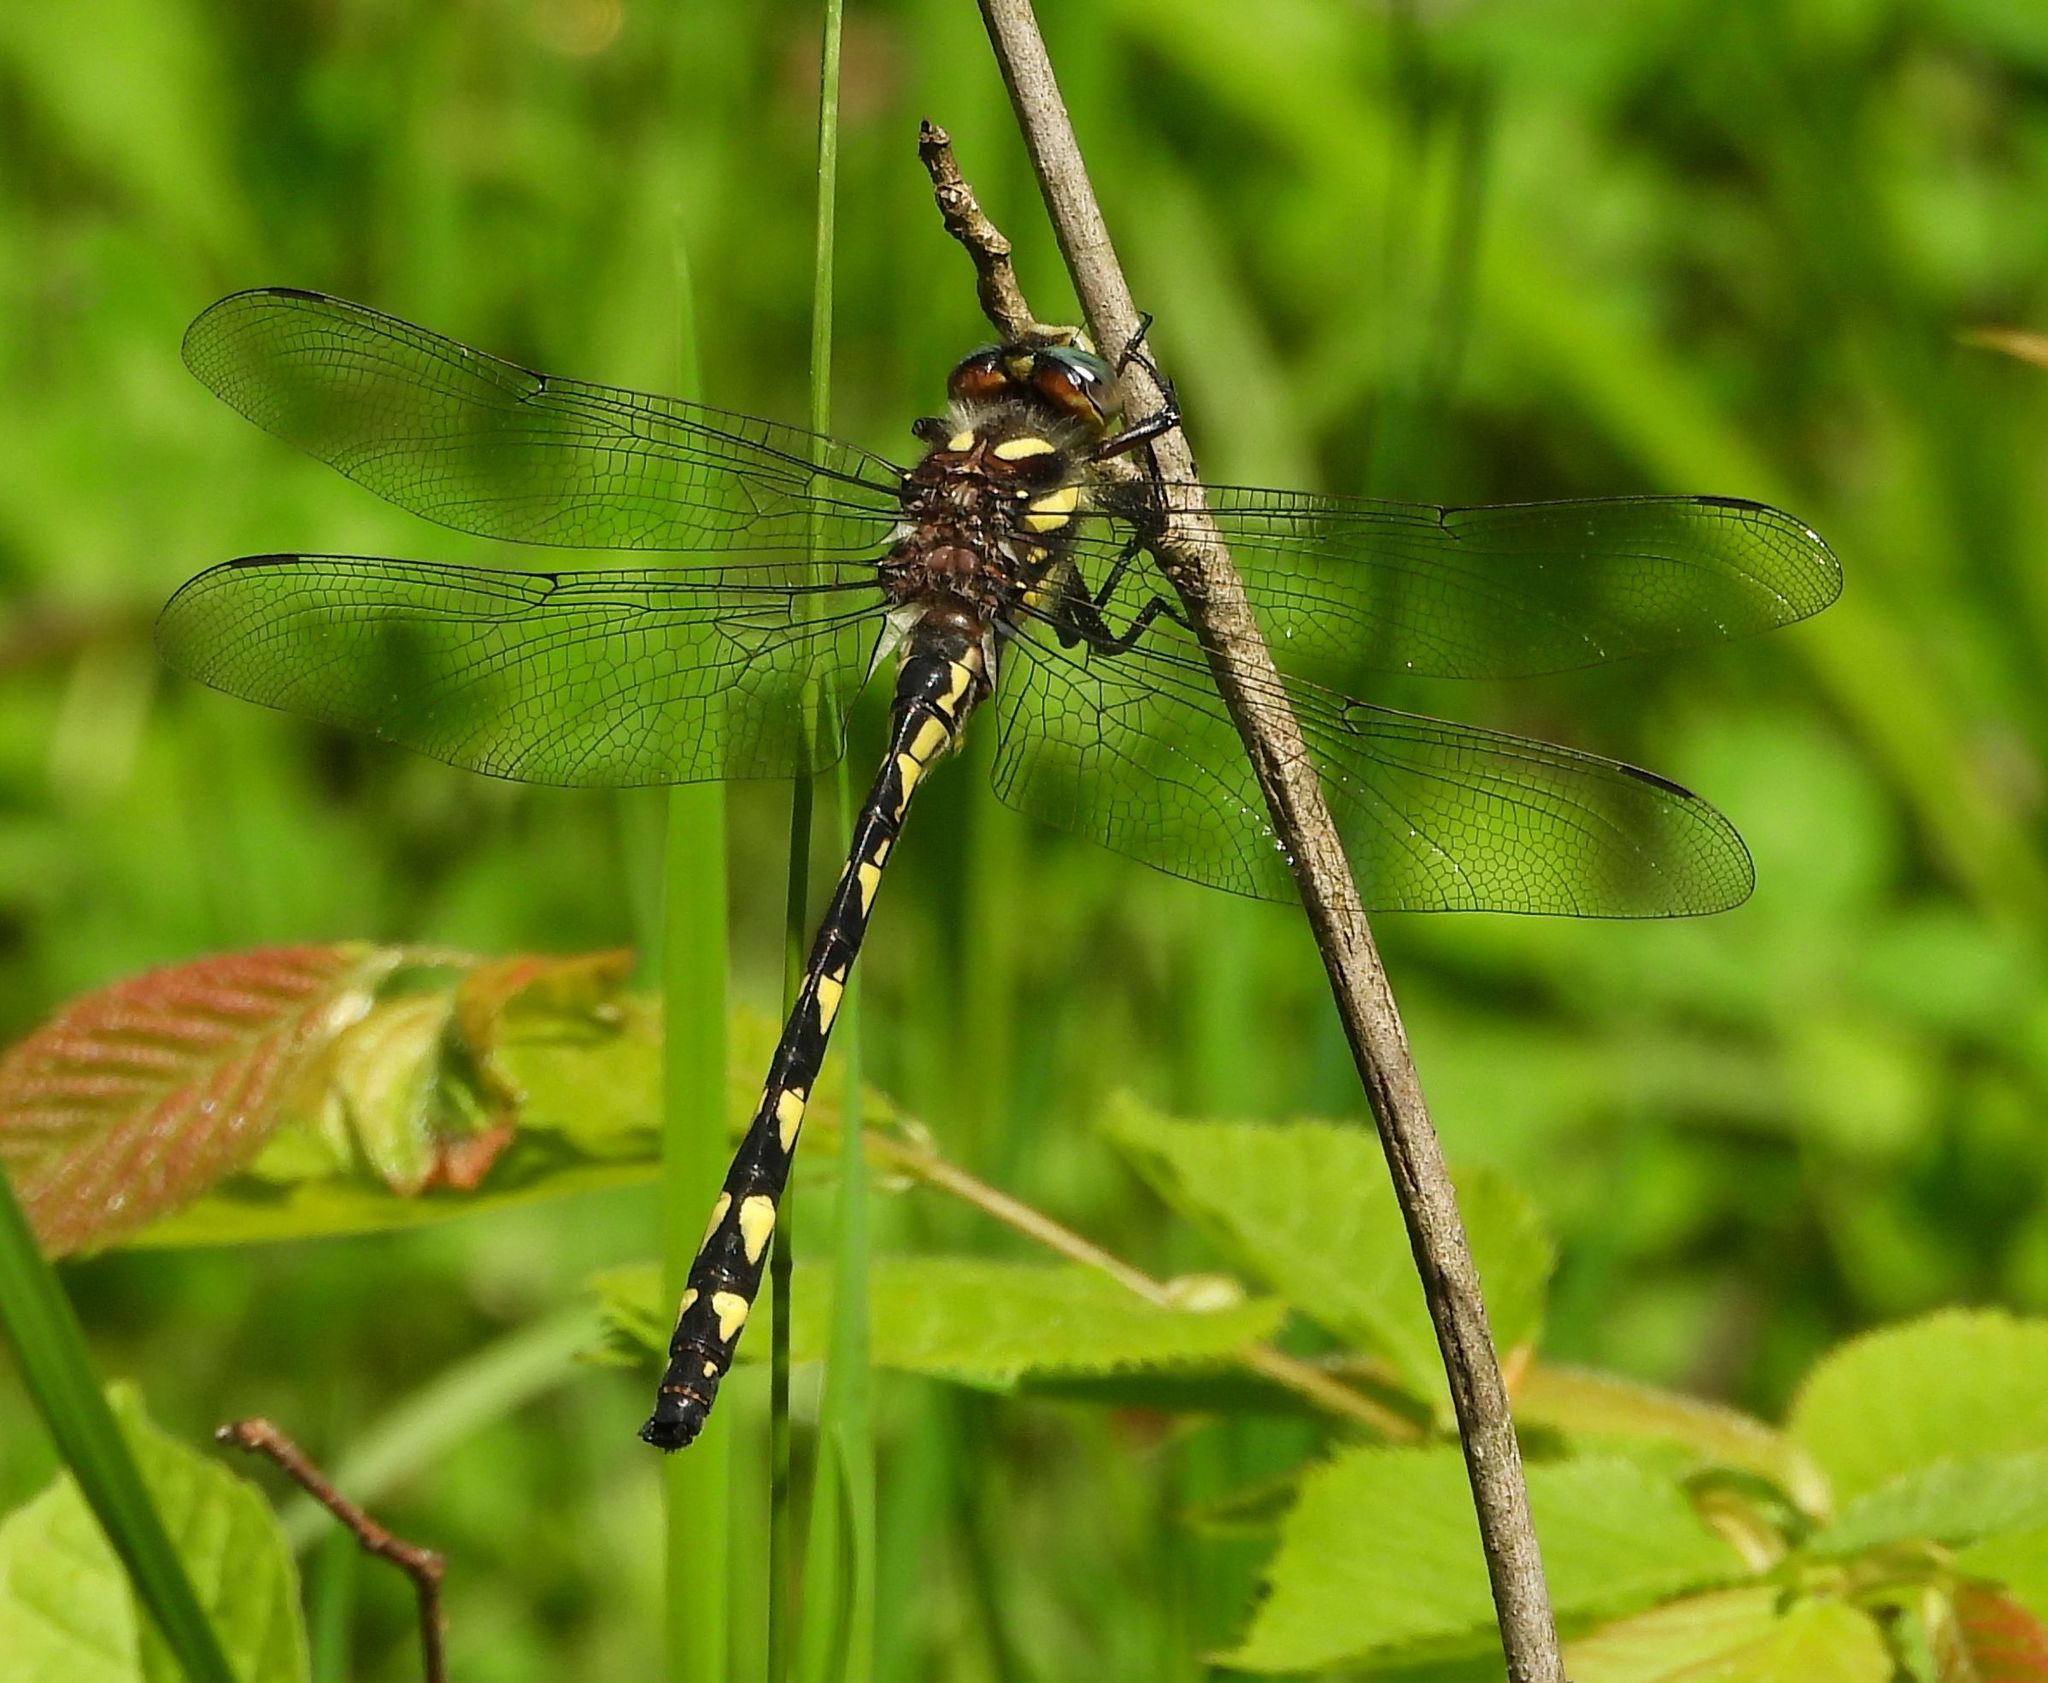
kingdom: Animalia
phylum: Arthropoda
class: Insecta
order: Odonata
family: Cordulegastridae
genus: Cordulegaster
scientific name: Cordulegaster diastatops
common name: Delta-spotted spiketail
